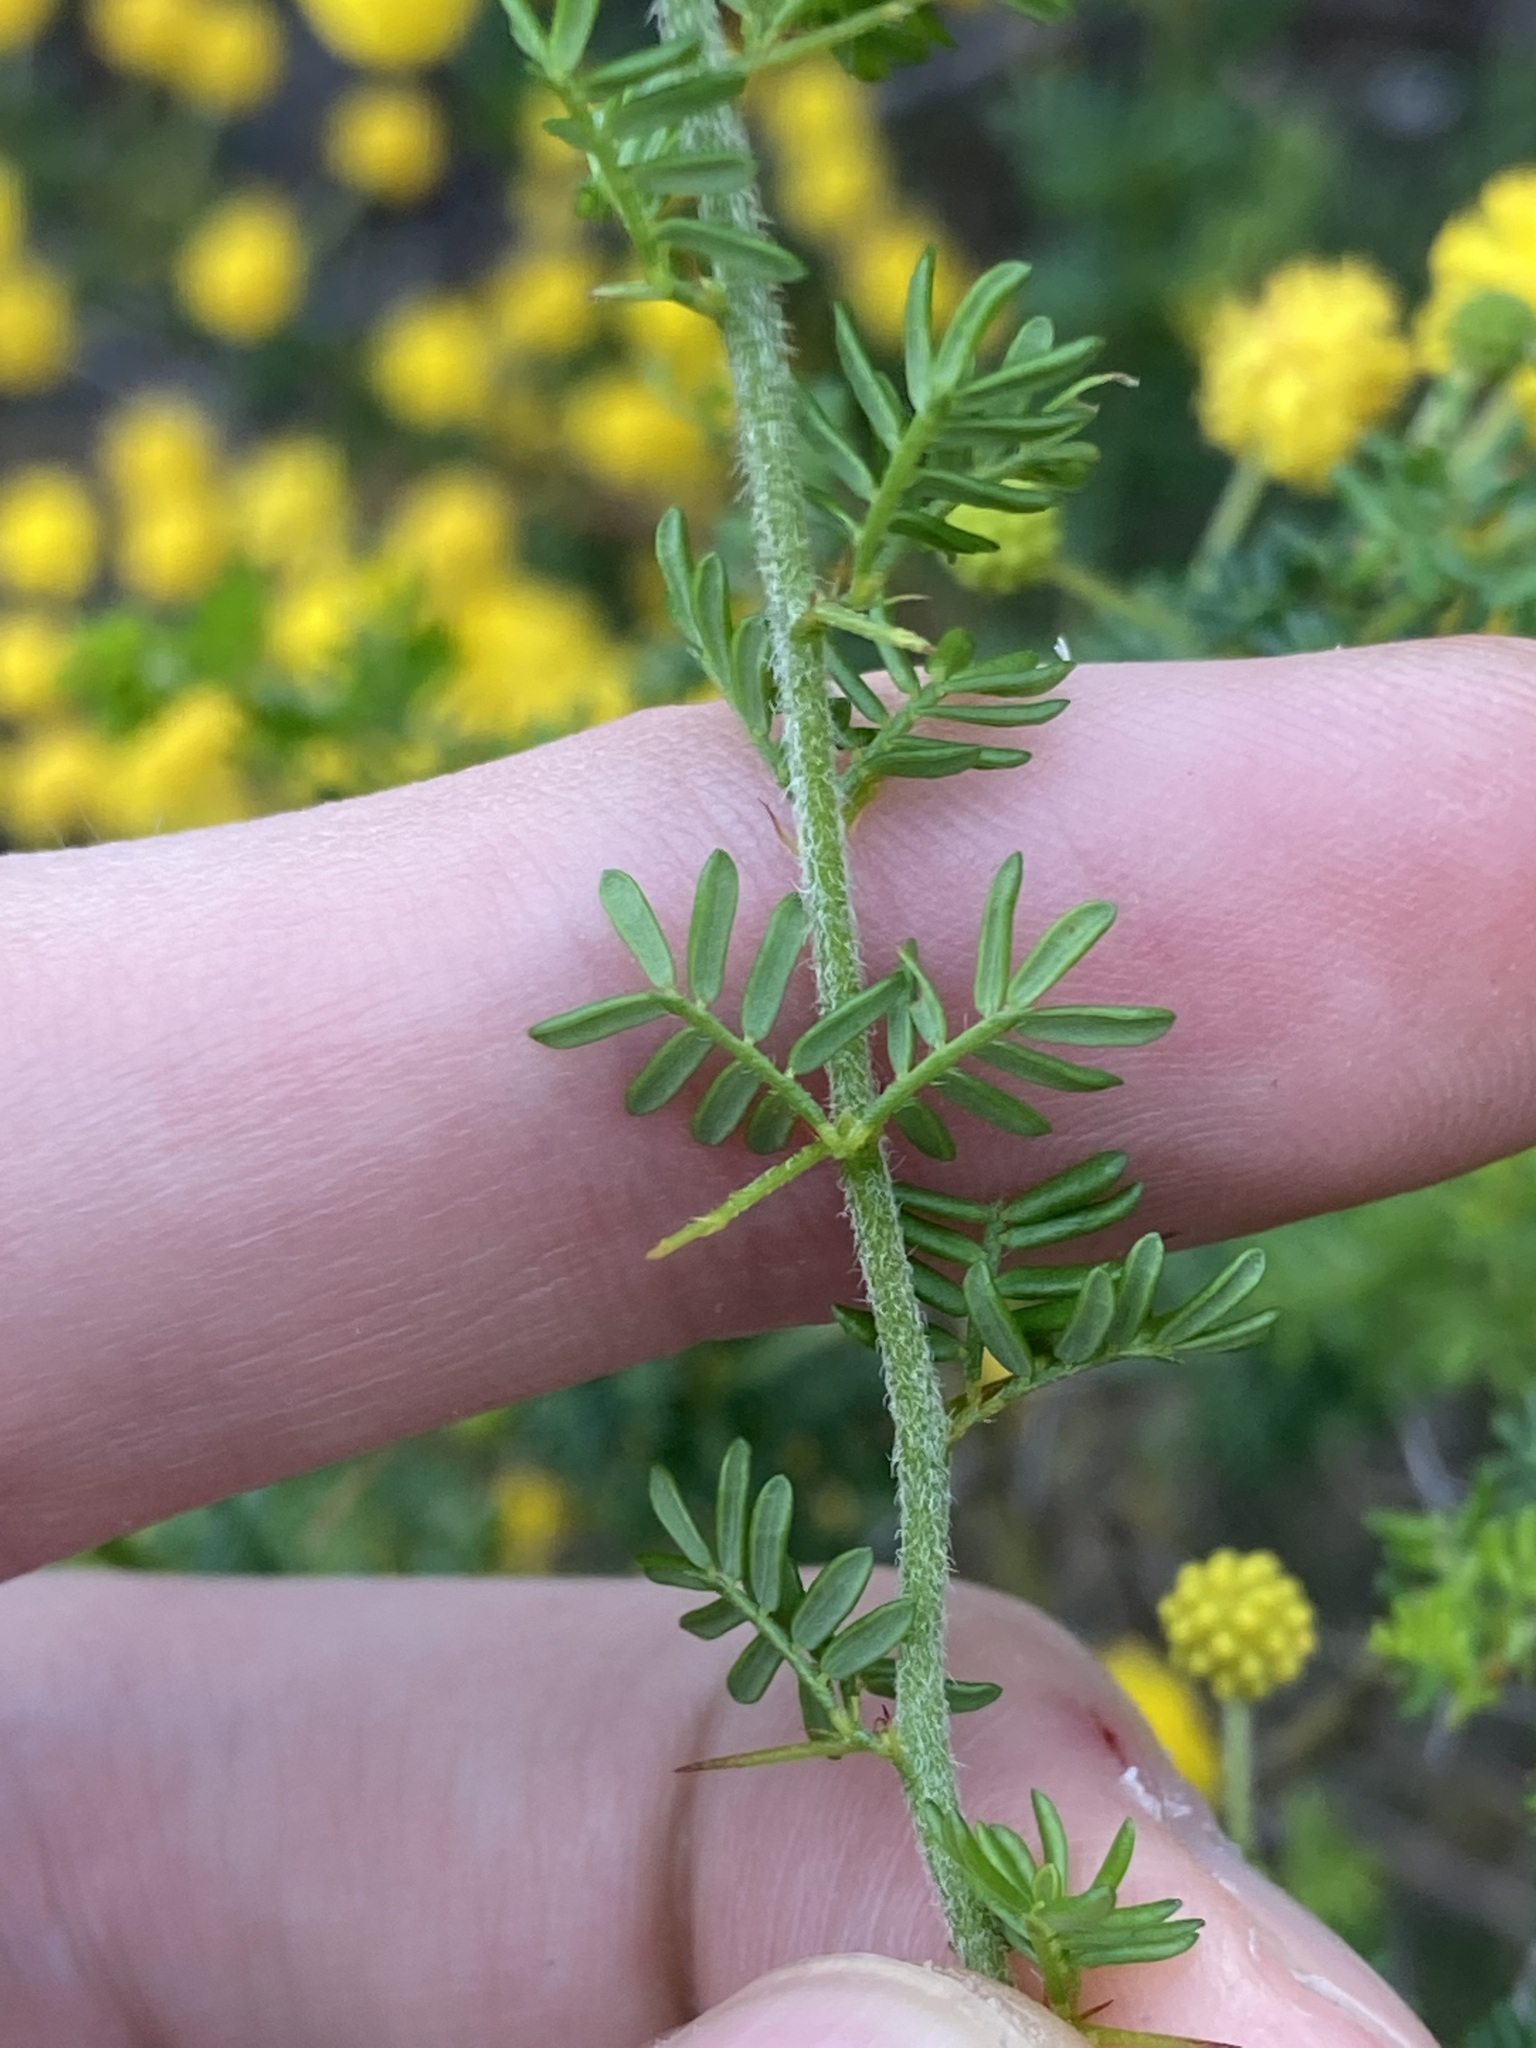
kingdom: Plantae
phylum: Tracheophyta
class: Magnoliopsida
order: Fabales
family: Fabaceae
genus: Acacia
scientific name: Acacia lasiocarpa
